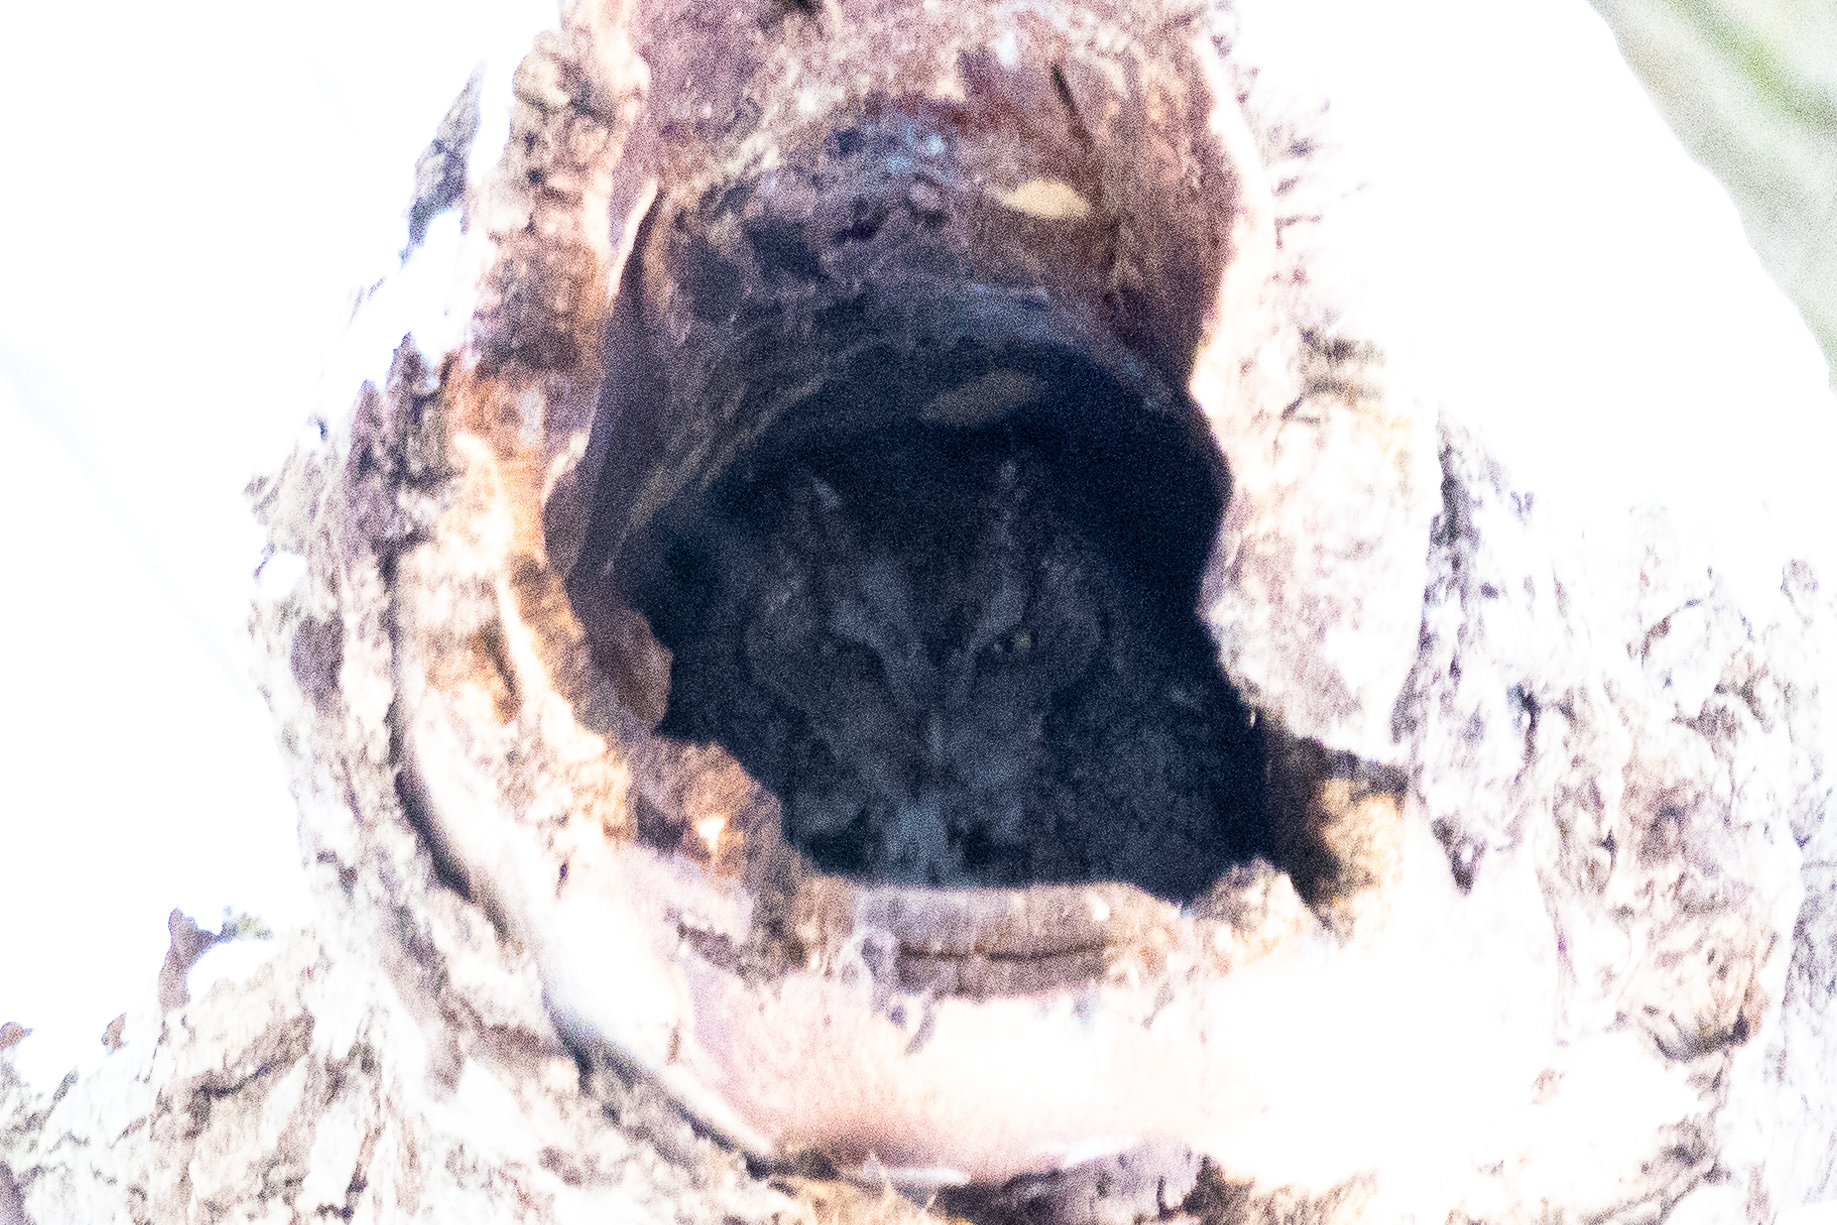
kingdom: Animalia
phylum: Chordata
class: Aves
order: Strigiformes
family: Strigidae
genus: Megascops
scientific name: Megascops asio
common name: Eastern screech-owl
